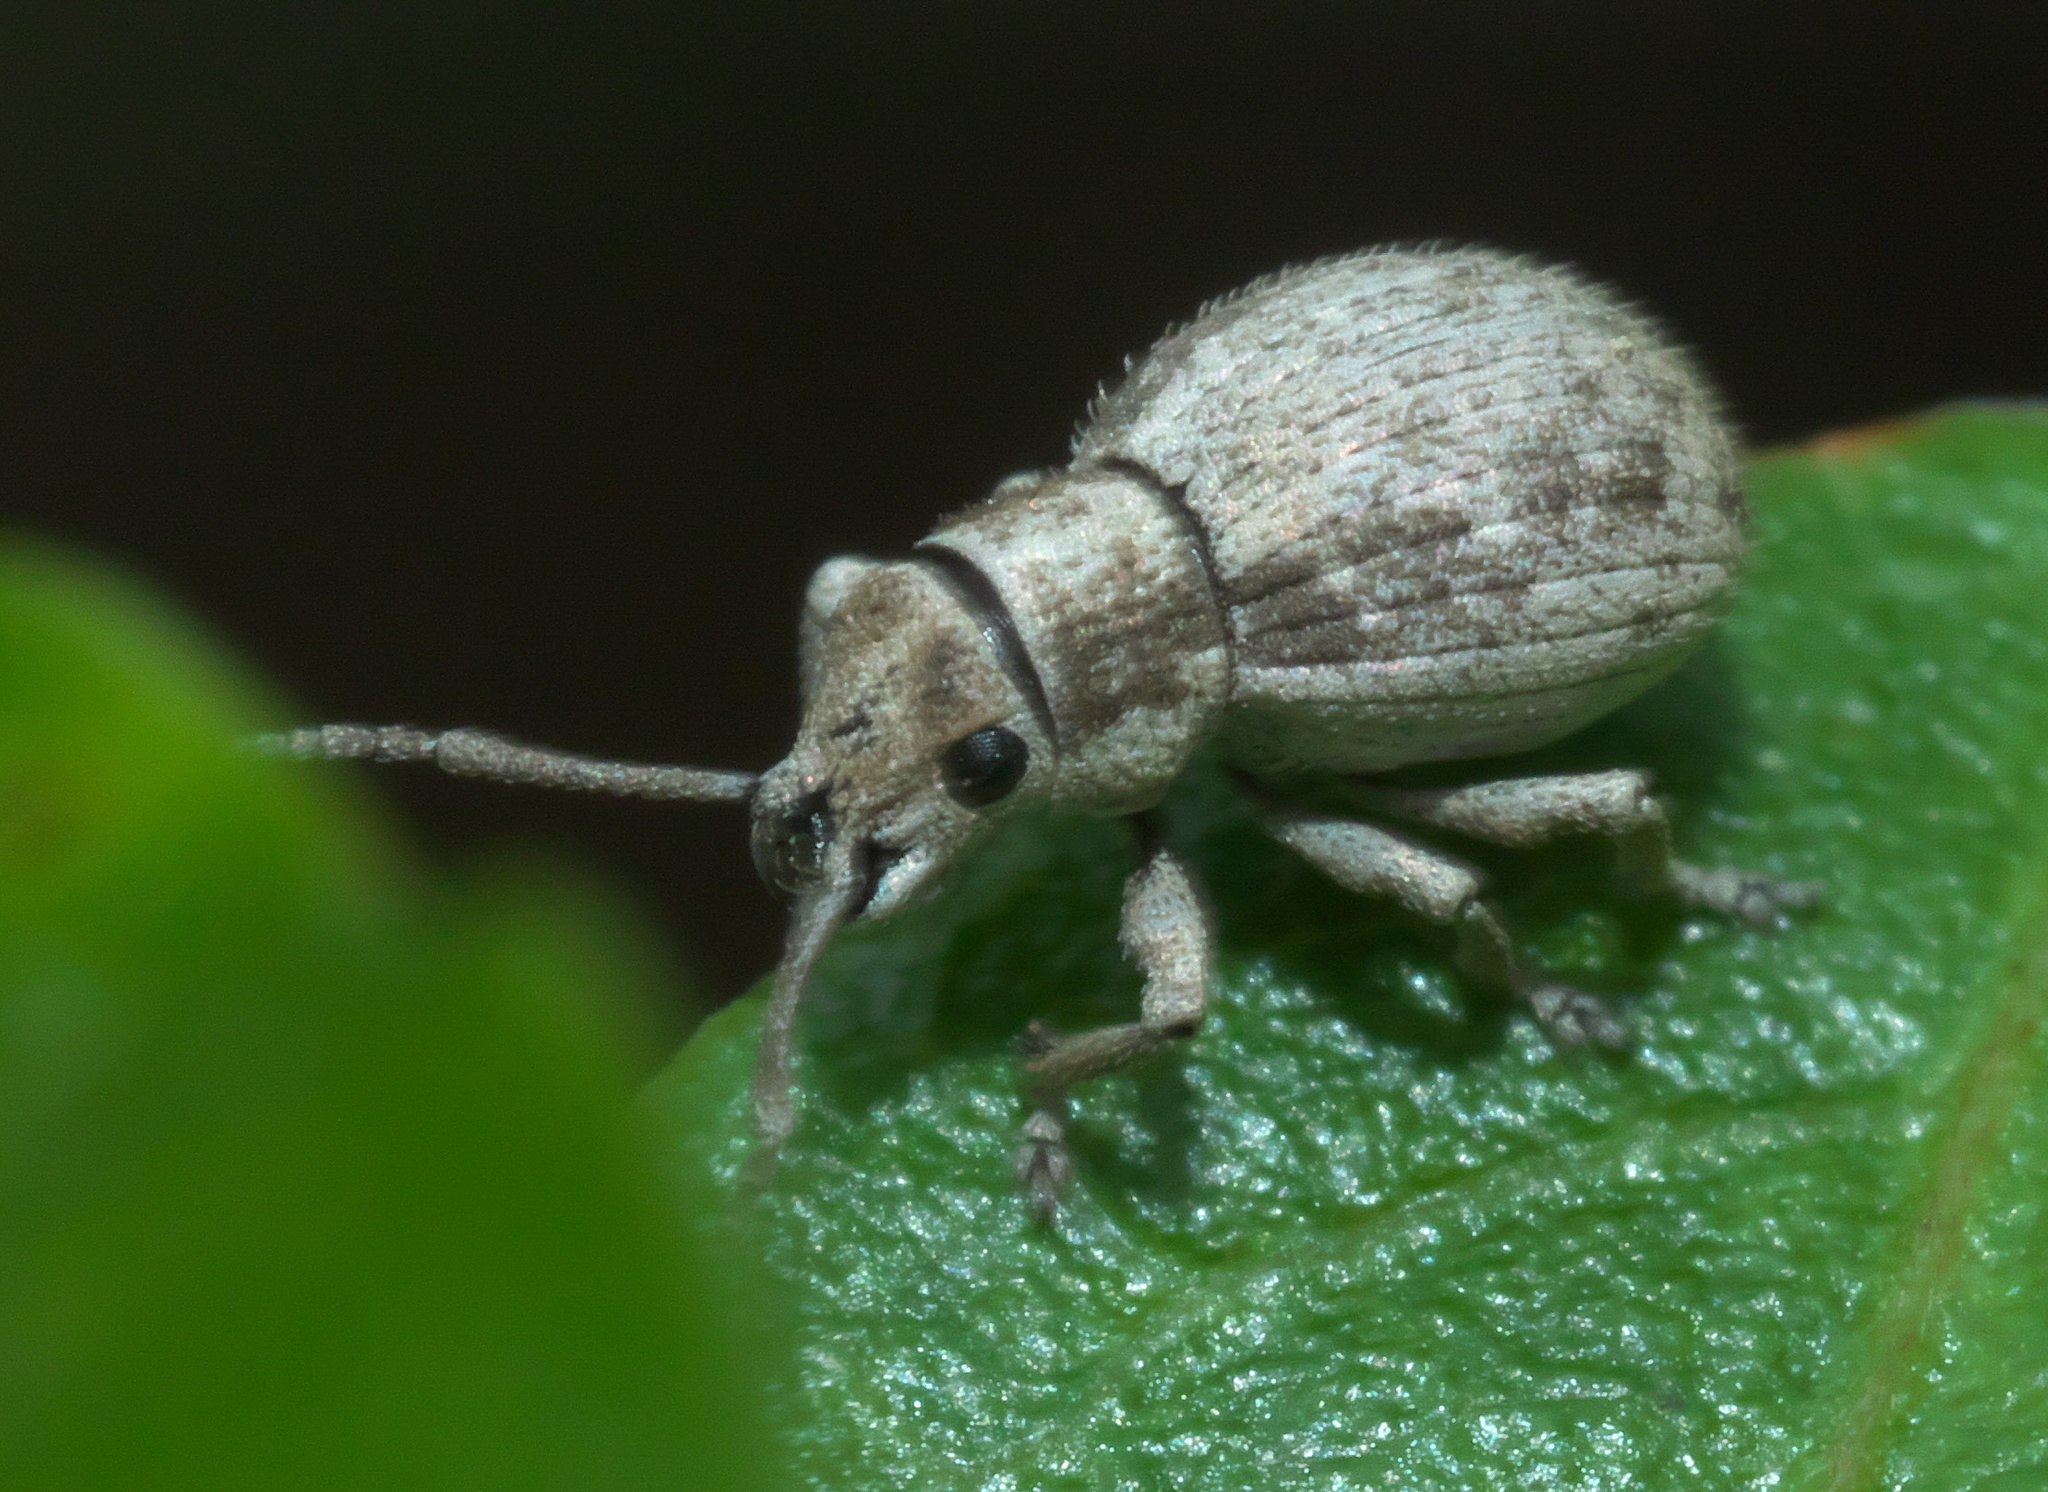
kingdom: Animalia
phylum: Arthropoda
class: Insecta
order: Coleoptera
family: Curculionidae
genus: Neoptochus
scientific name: Neoptochus adspersus
